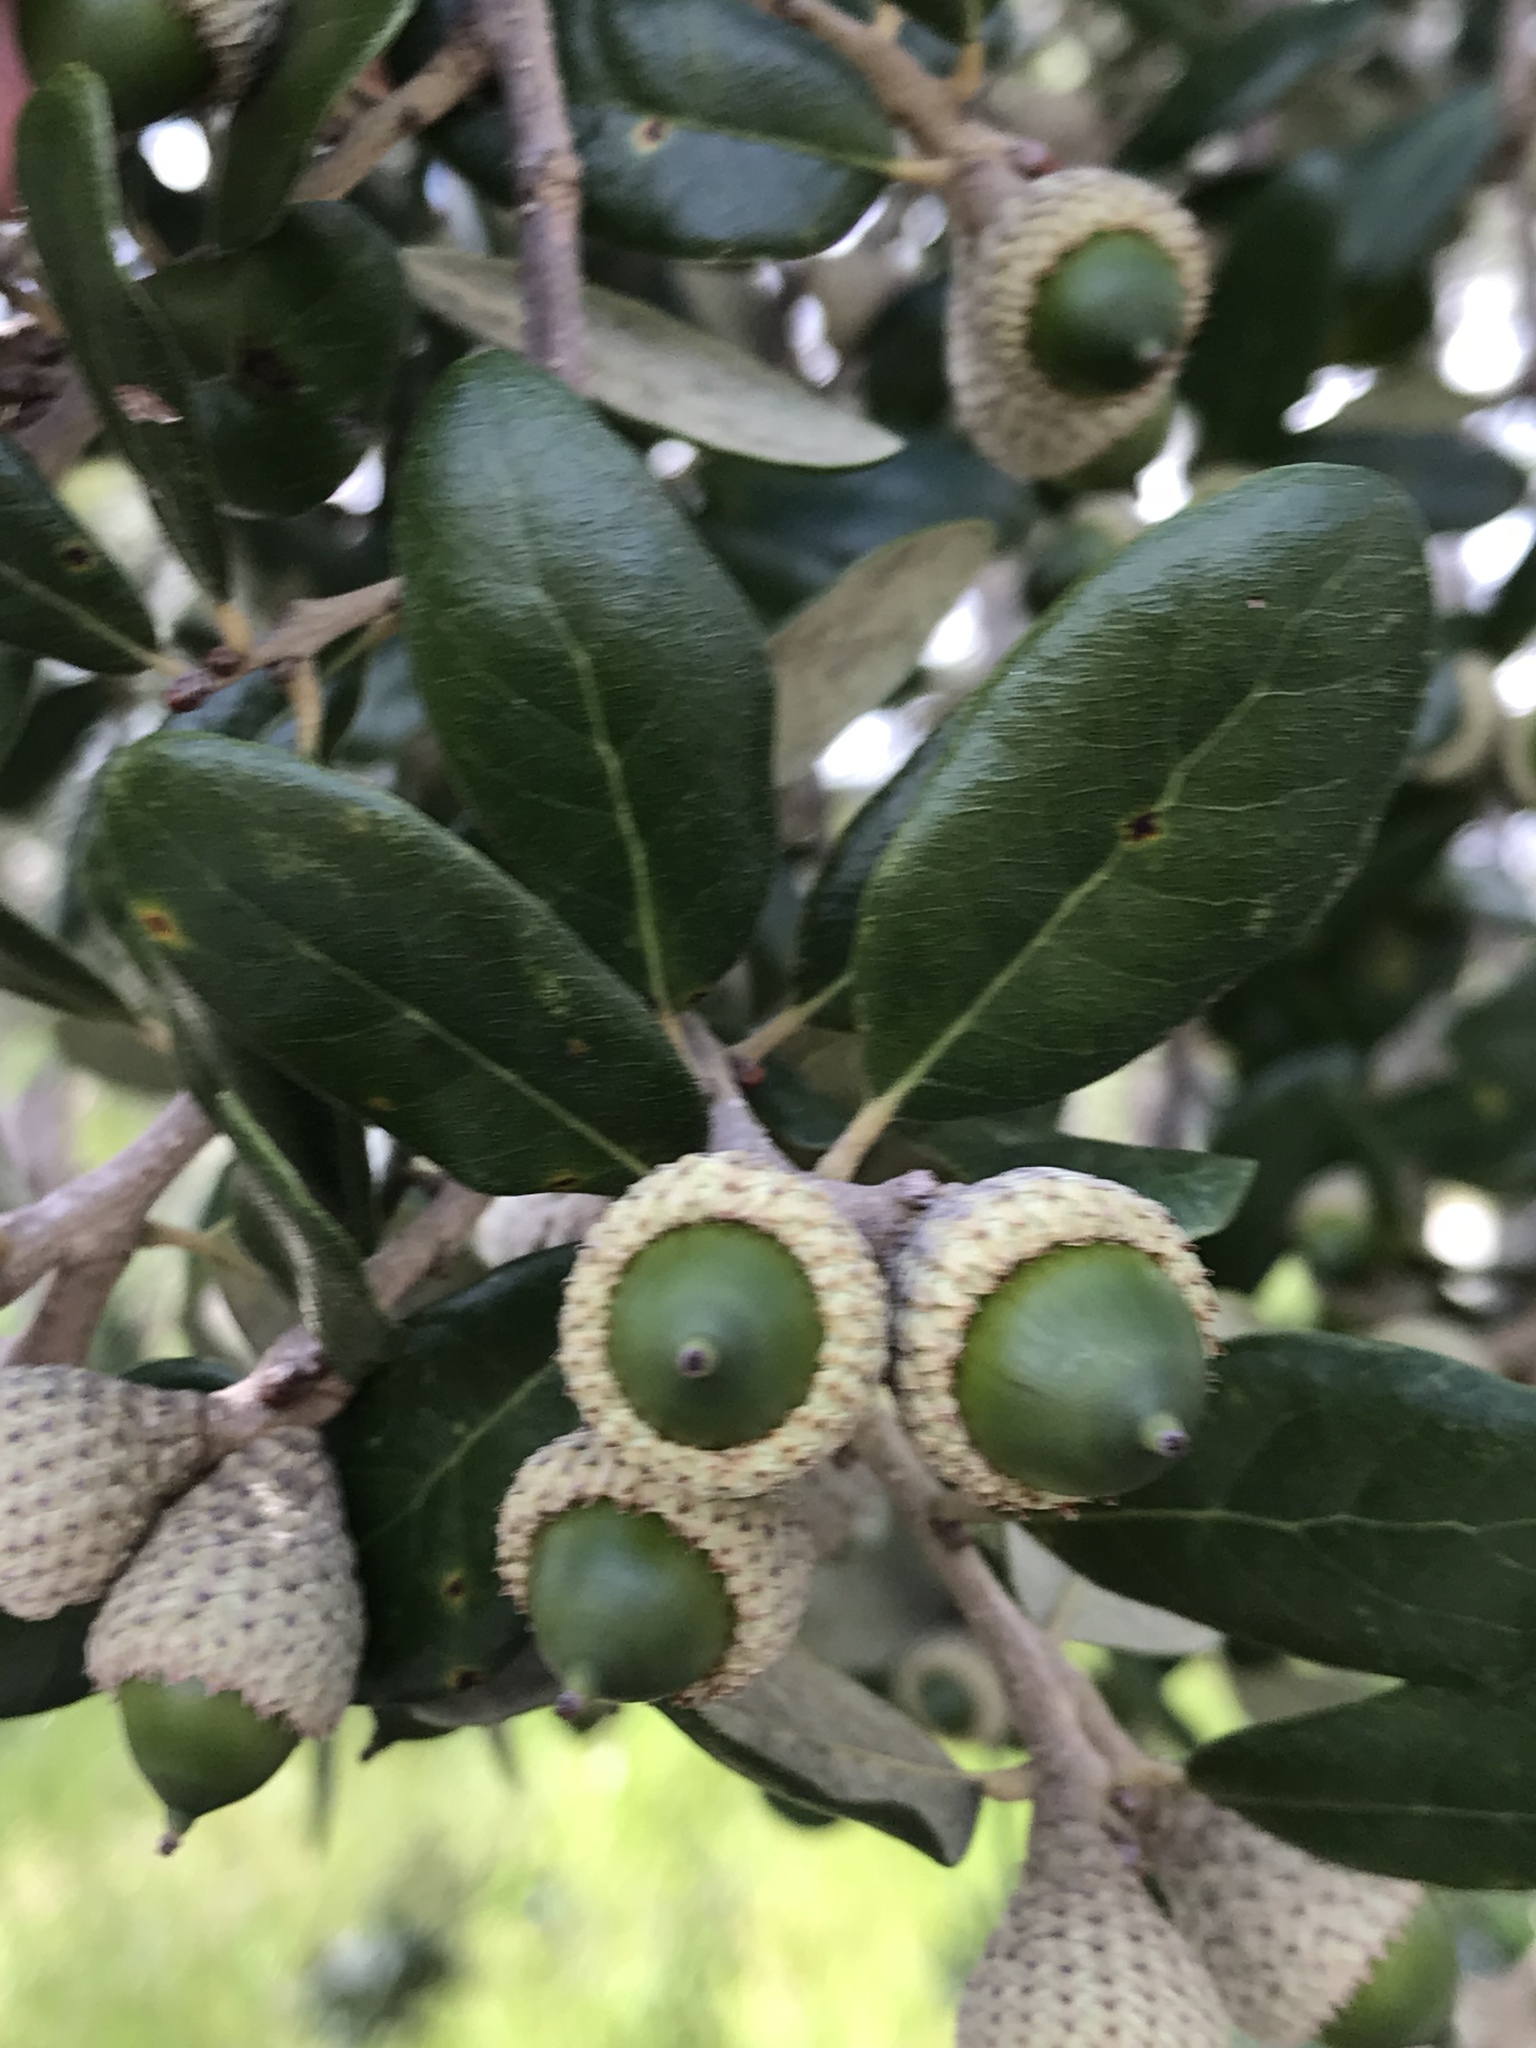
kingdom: Plantae
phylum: Tracheophyta
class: Magnoliopsida
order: Fagales
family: Fagaceae
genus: Quercus
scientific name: Quercus virginiana
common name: Southern live oak
